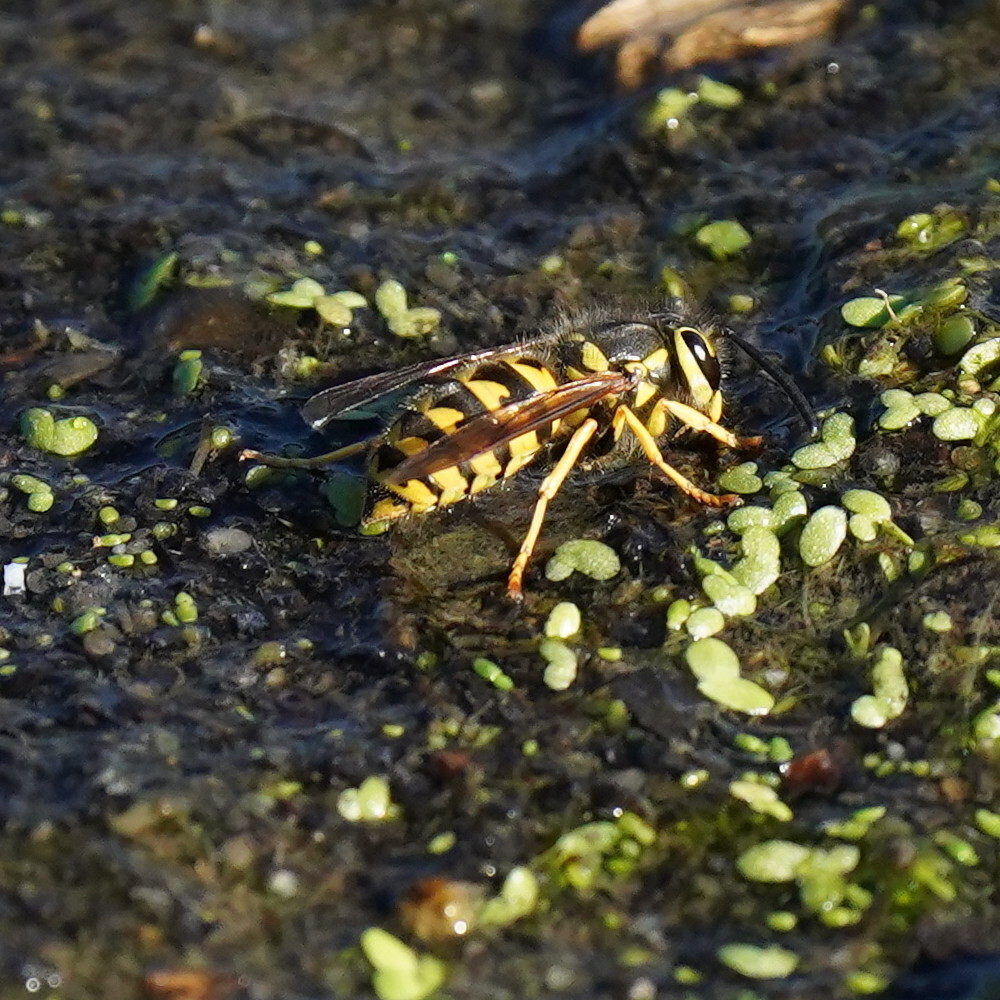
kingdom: Animalia
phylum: Arthropoda
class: Insecta
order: Hymenoptera
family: Vespidae
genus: Vespula
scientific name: Vespula pensylvanica
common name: Western yellowjacket
